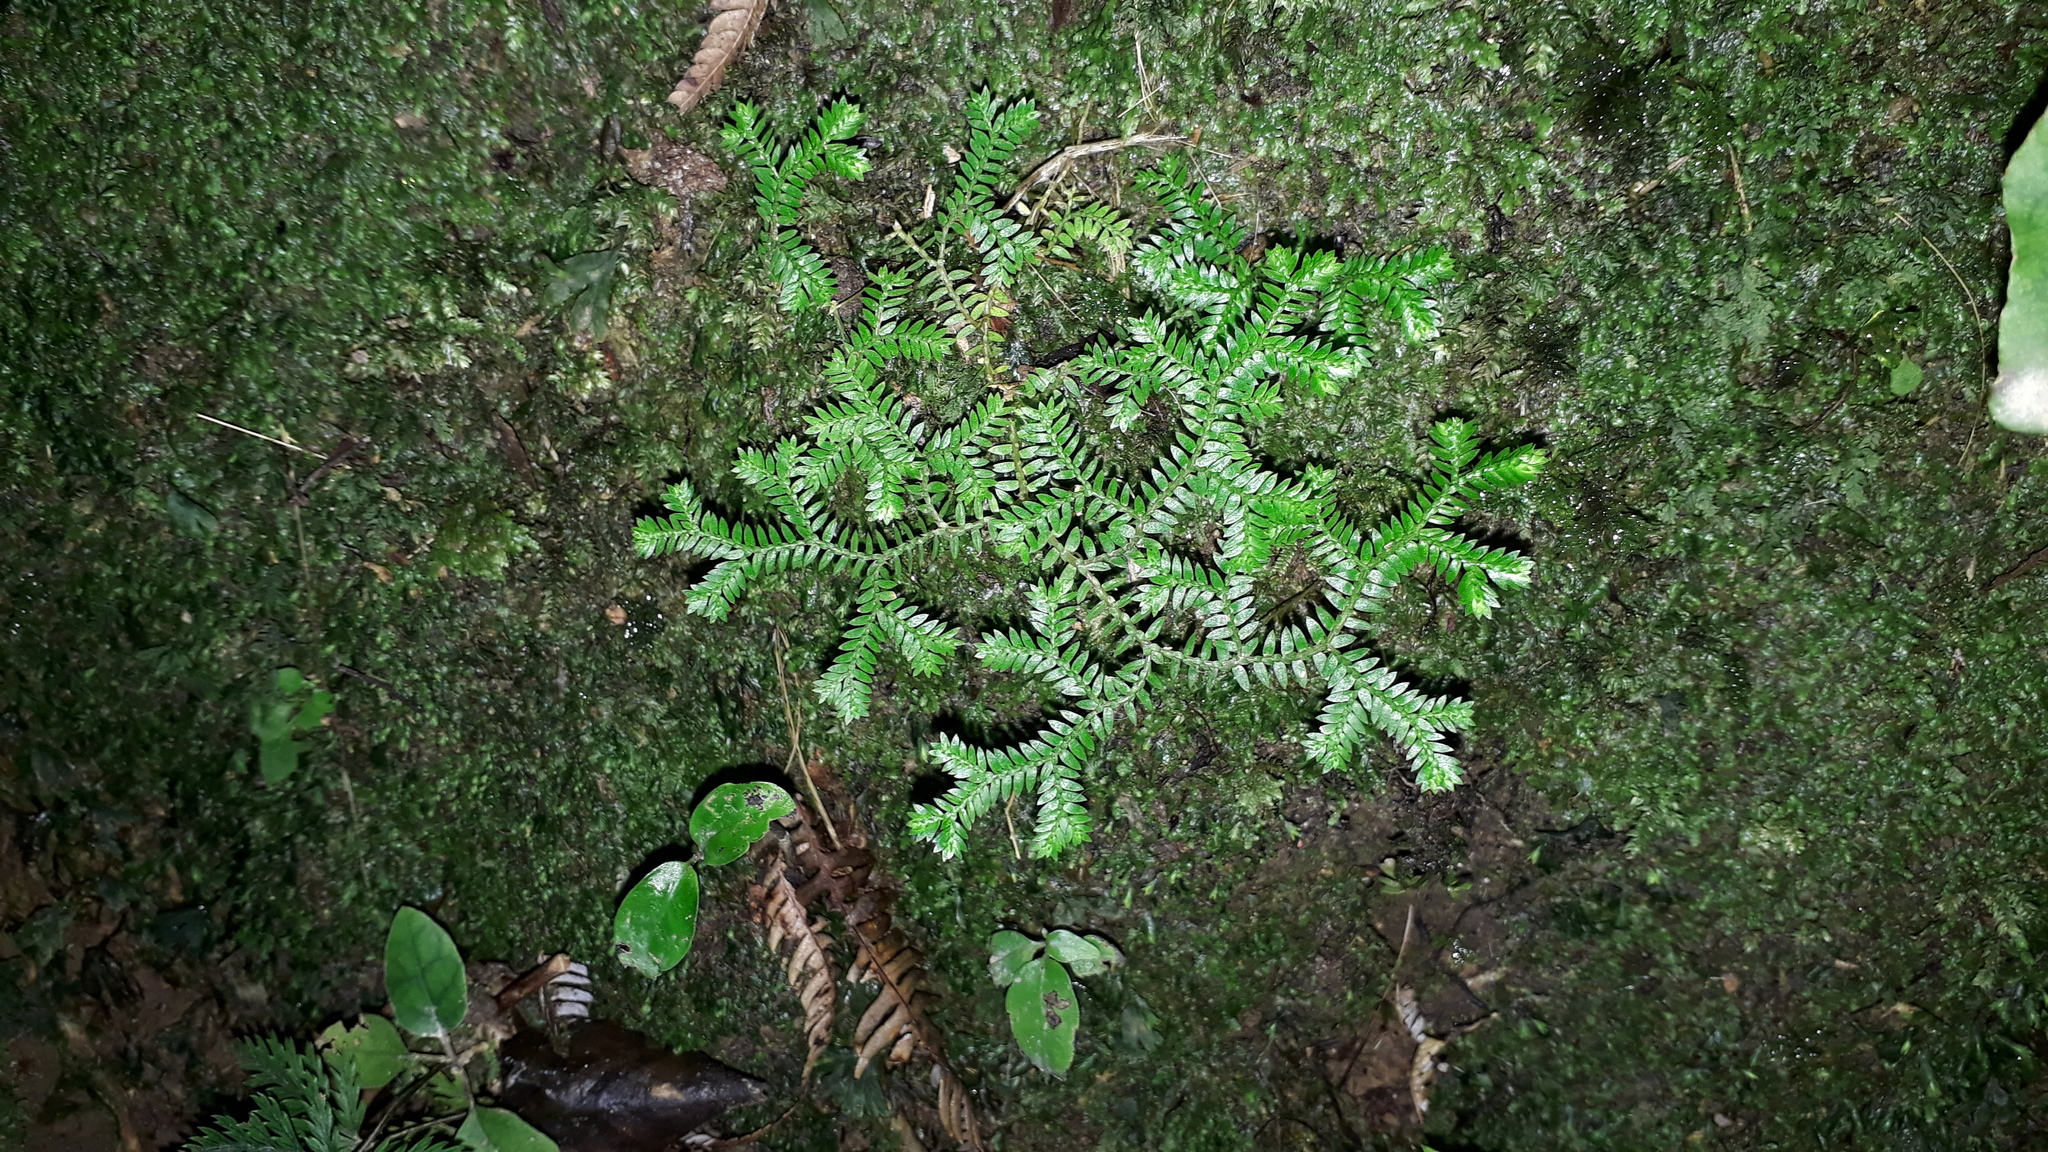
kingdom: Plantae
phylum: Tracheophyta
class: Lycopodiopsida
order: Selaginellales
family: Selaginellaceae
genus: Selaginella
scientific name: Selaginella kraussiana
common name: Krauss' spikemoss
